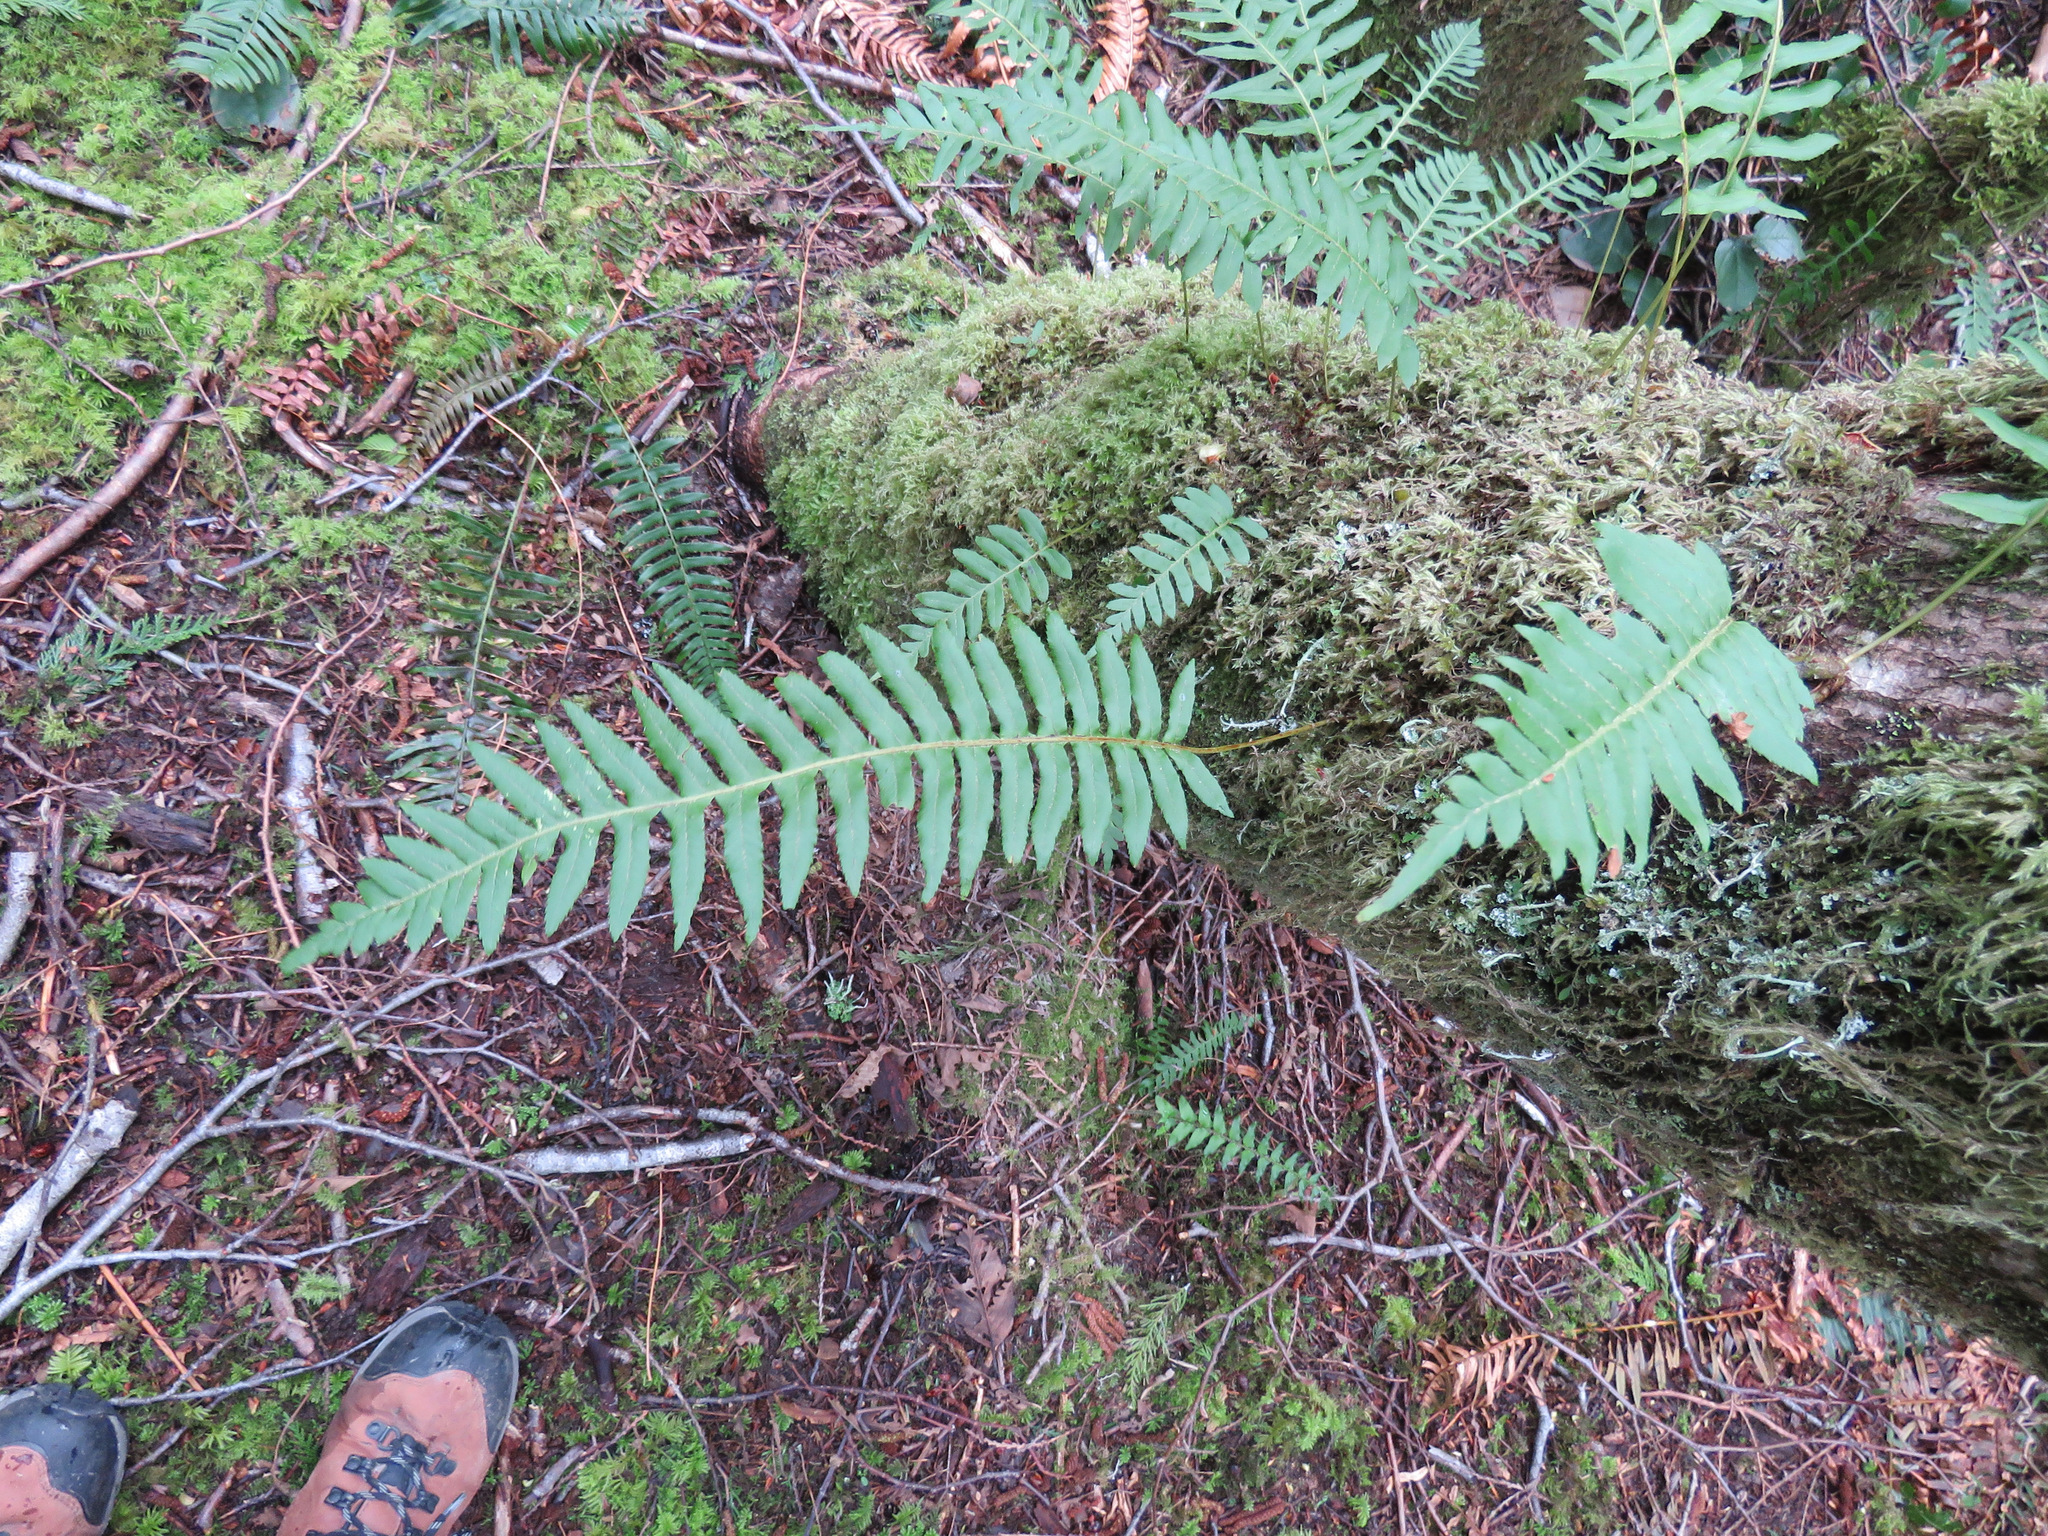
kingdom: Plantae
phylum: Tracheophyta
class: Polypodiopsida
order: Polypodiales
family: Polypodiaceae
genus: Polypodium
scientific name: Polypodium glycyrrhiza
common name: Licorice fern
